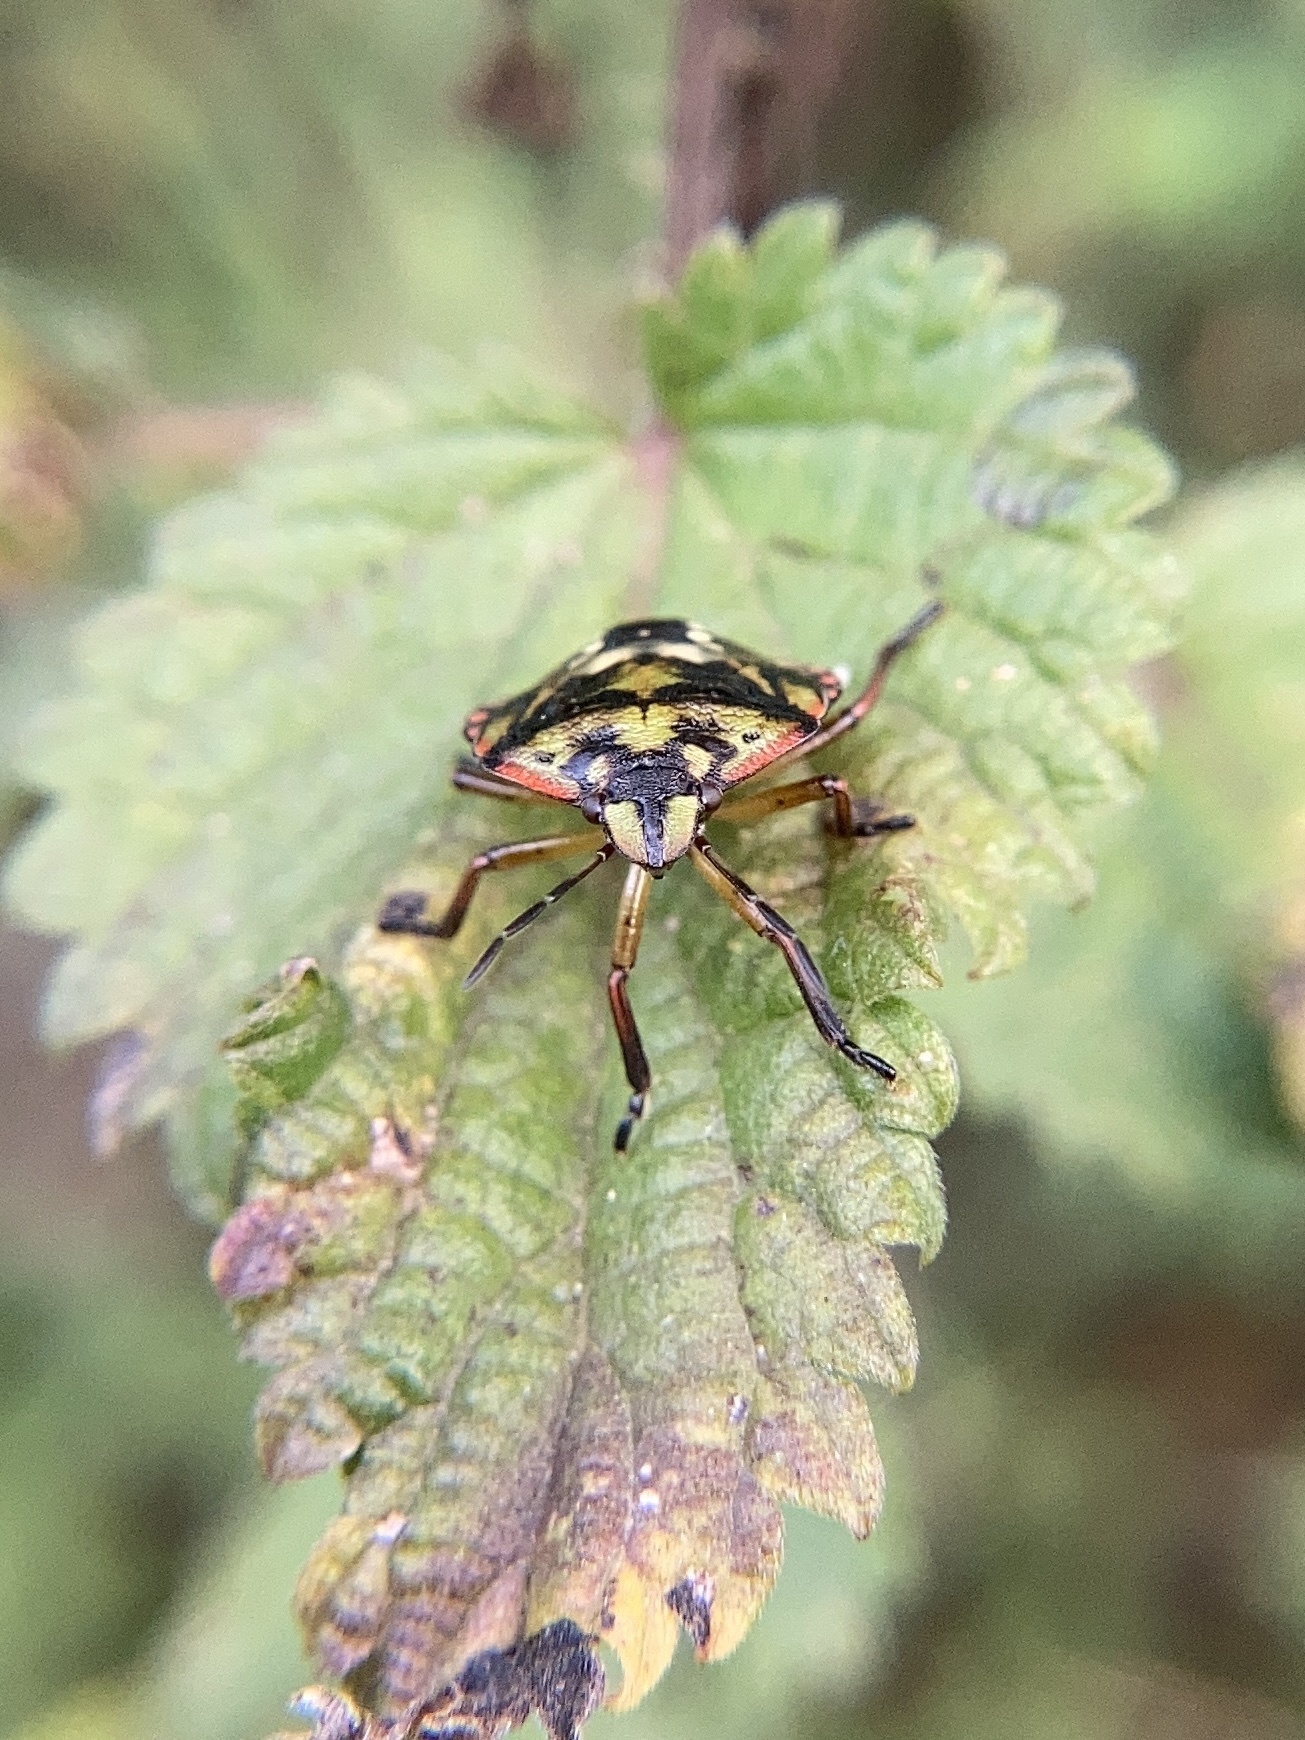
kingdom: Animalia
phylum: Arthropoda
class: Insecta
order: Hemiptera
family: Pentatomidae
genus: Nezara
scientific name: Nezara viridula
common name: Southern green stink bug
